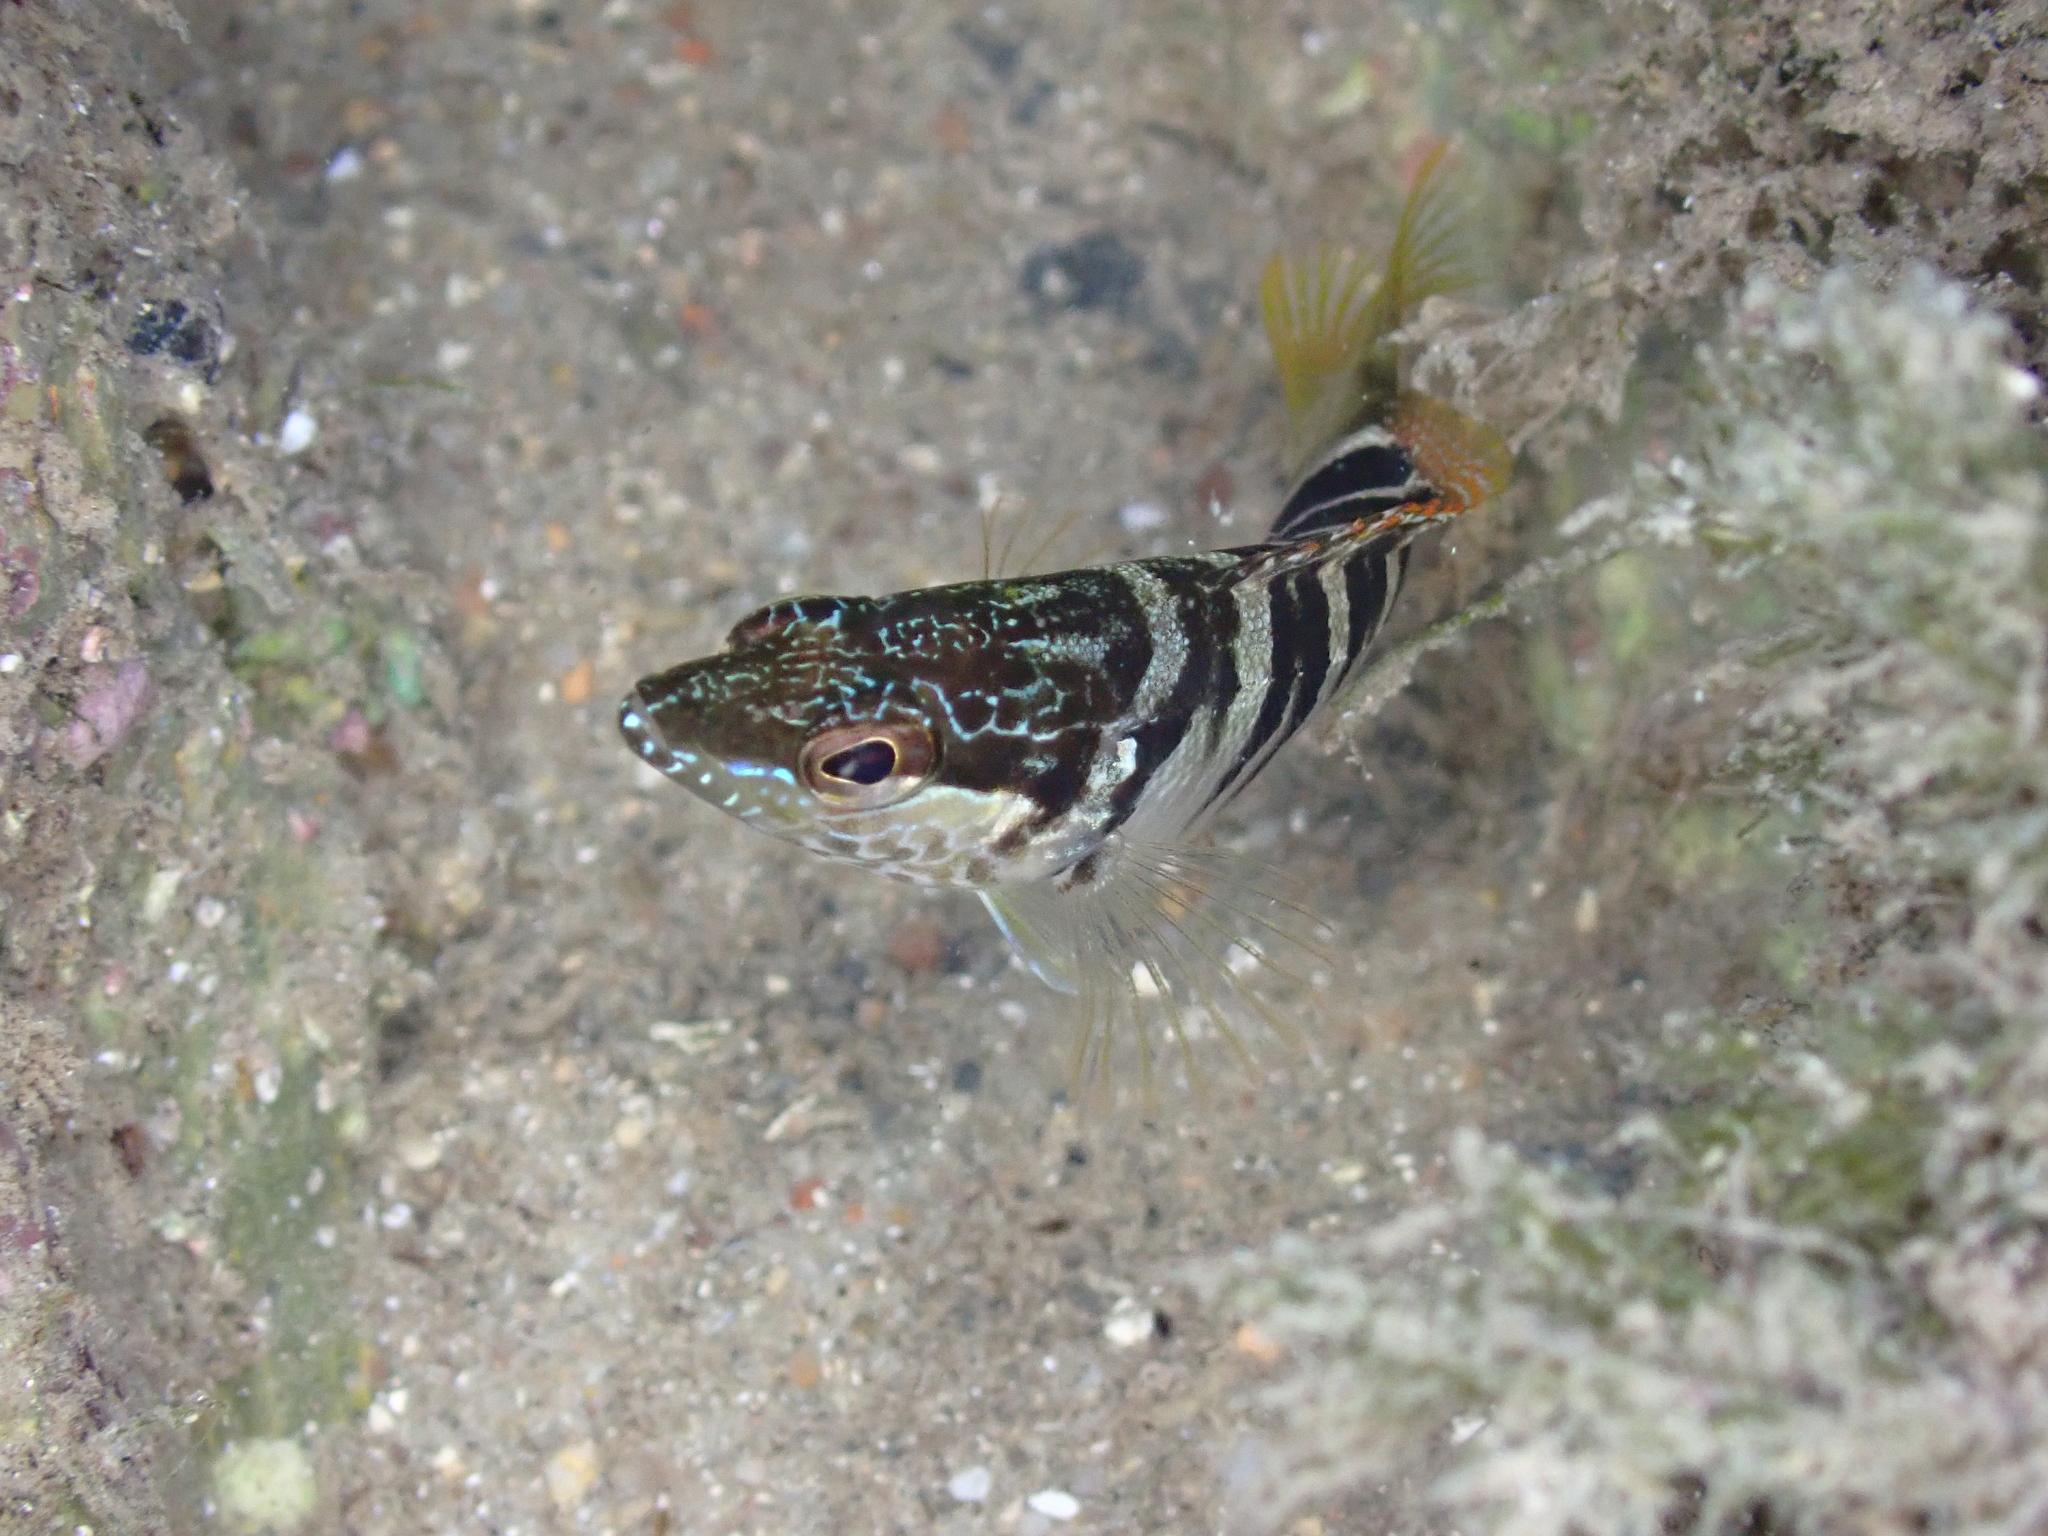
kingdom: Animalia
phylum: Chordata
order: Perciformes
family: Serranidae
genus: Serranus
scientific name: Serranus scriba
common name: Painted comber
